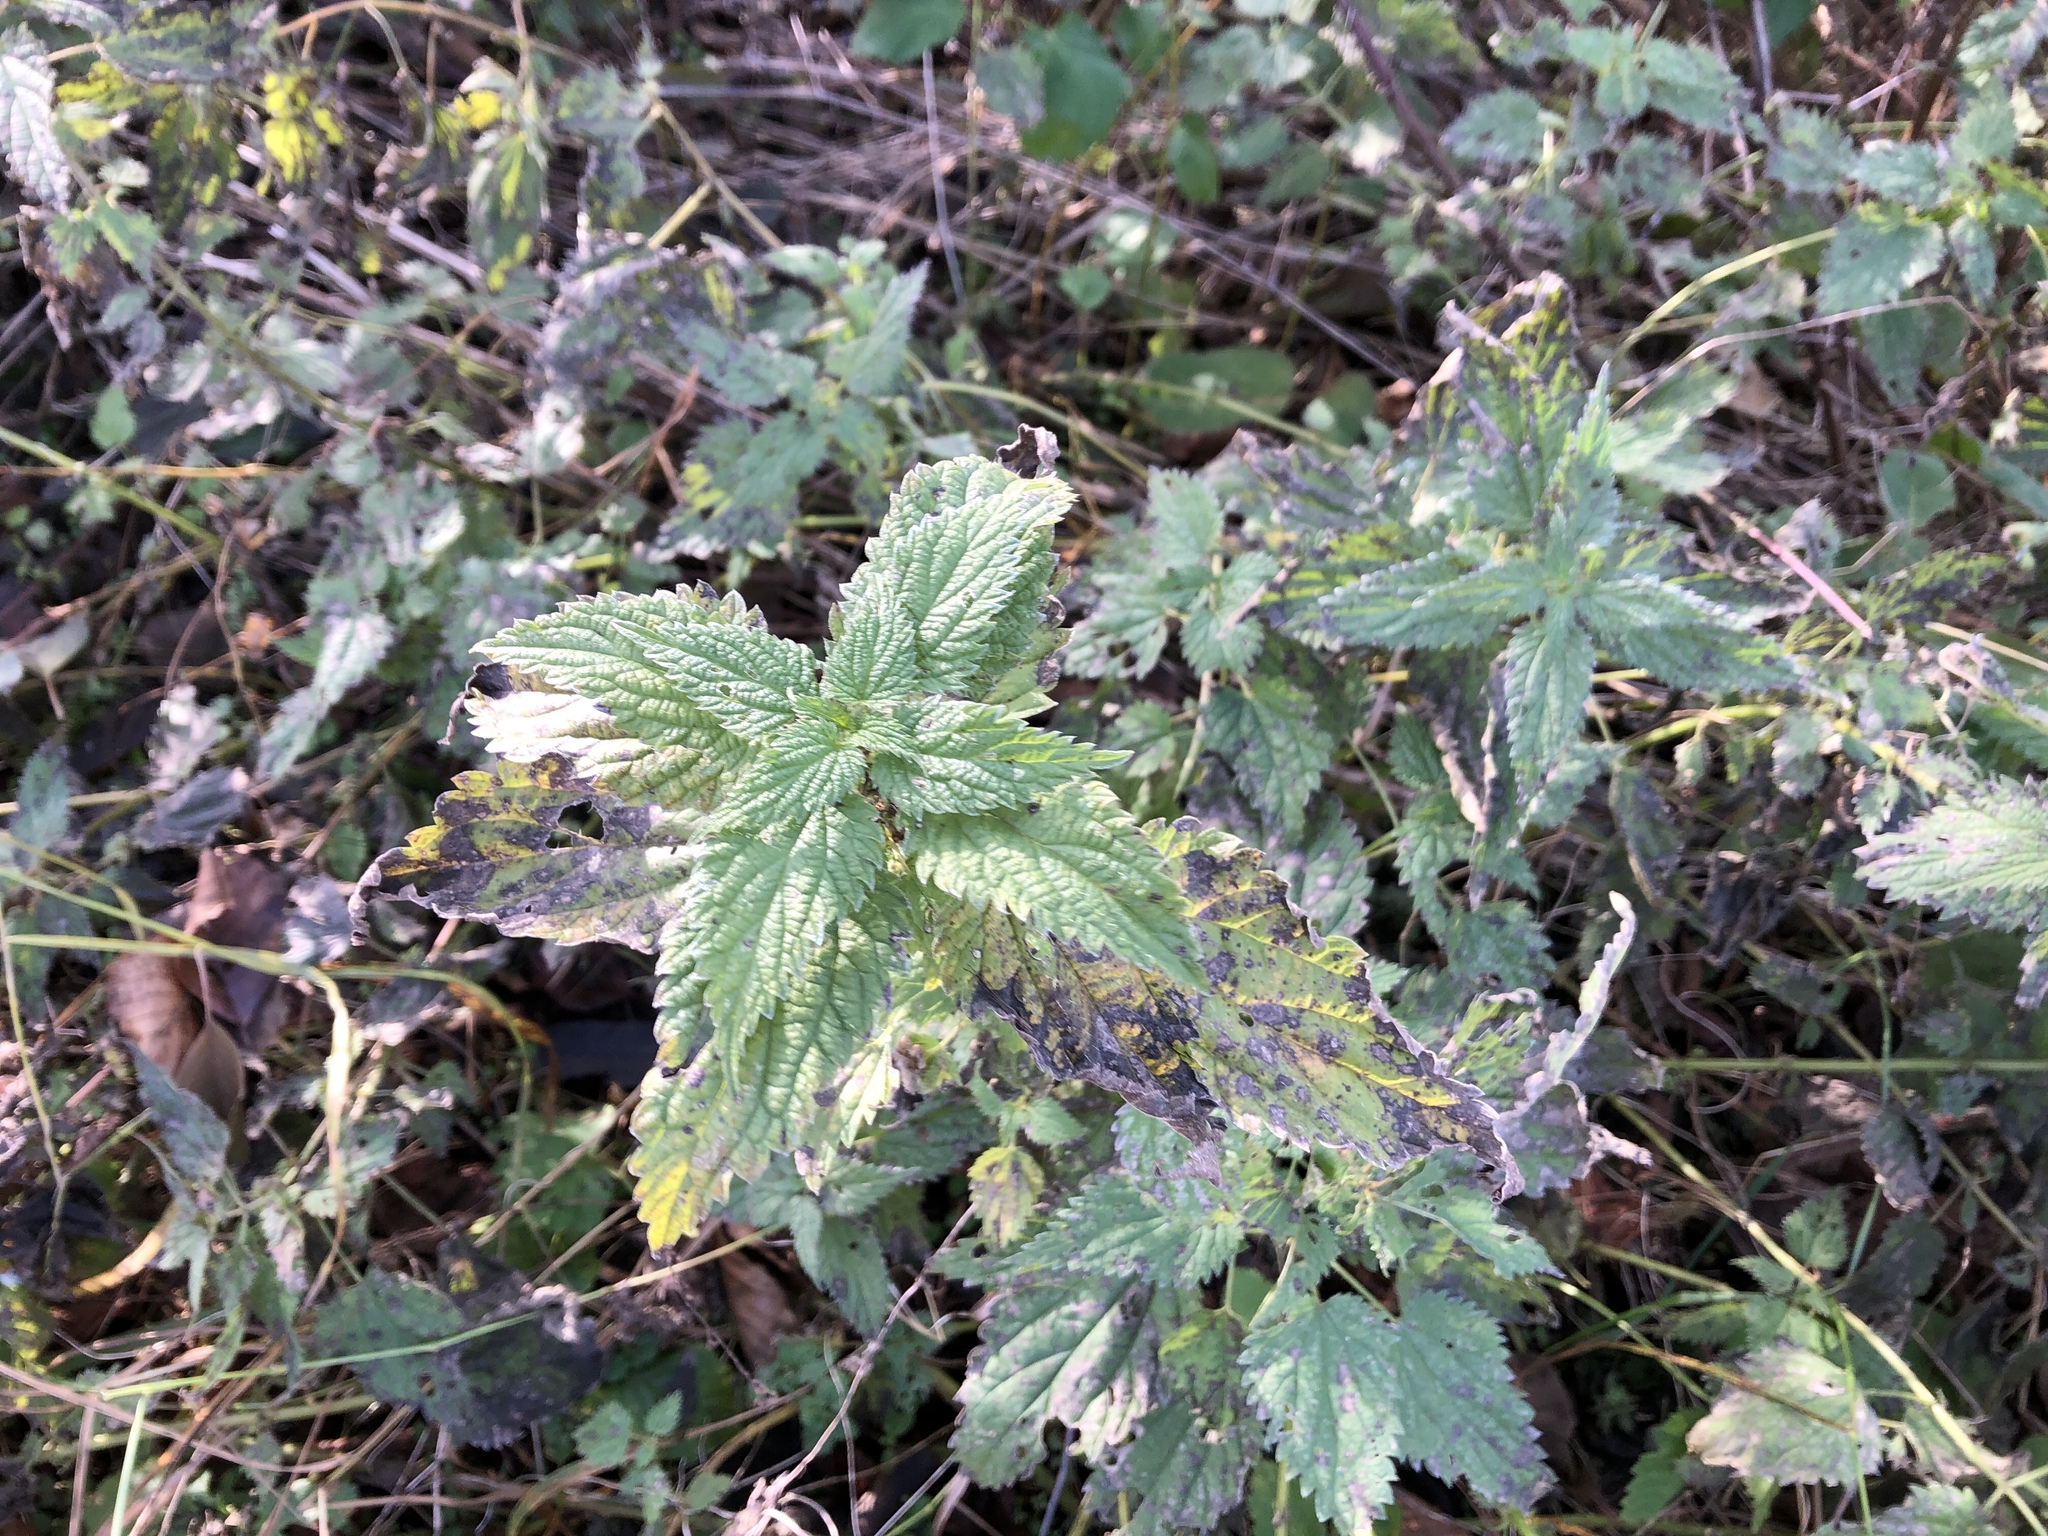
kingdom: Plantae
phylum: Tracheophyta
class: Magnoliopsida
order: Rosales
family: Urticaceae
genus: Urtica
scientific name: Urtica dioica
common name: Common nettle
